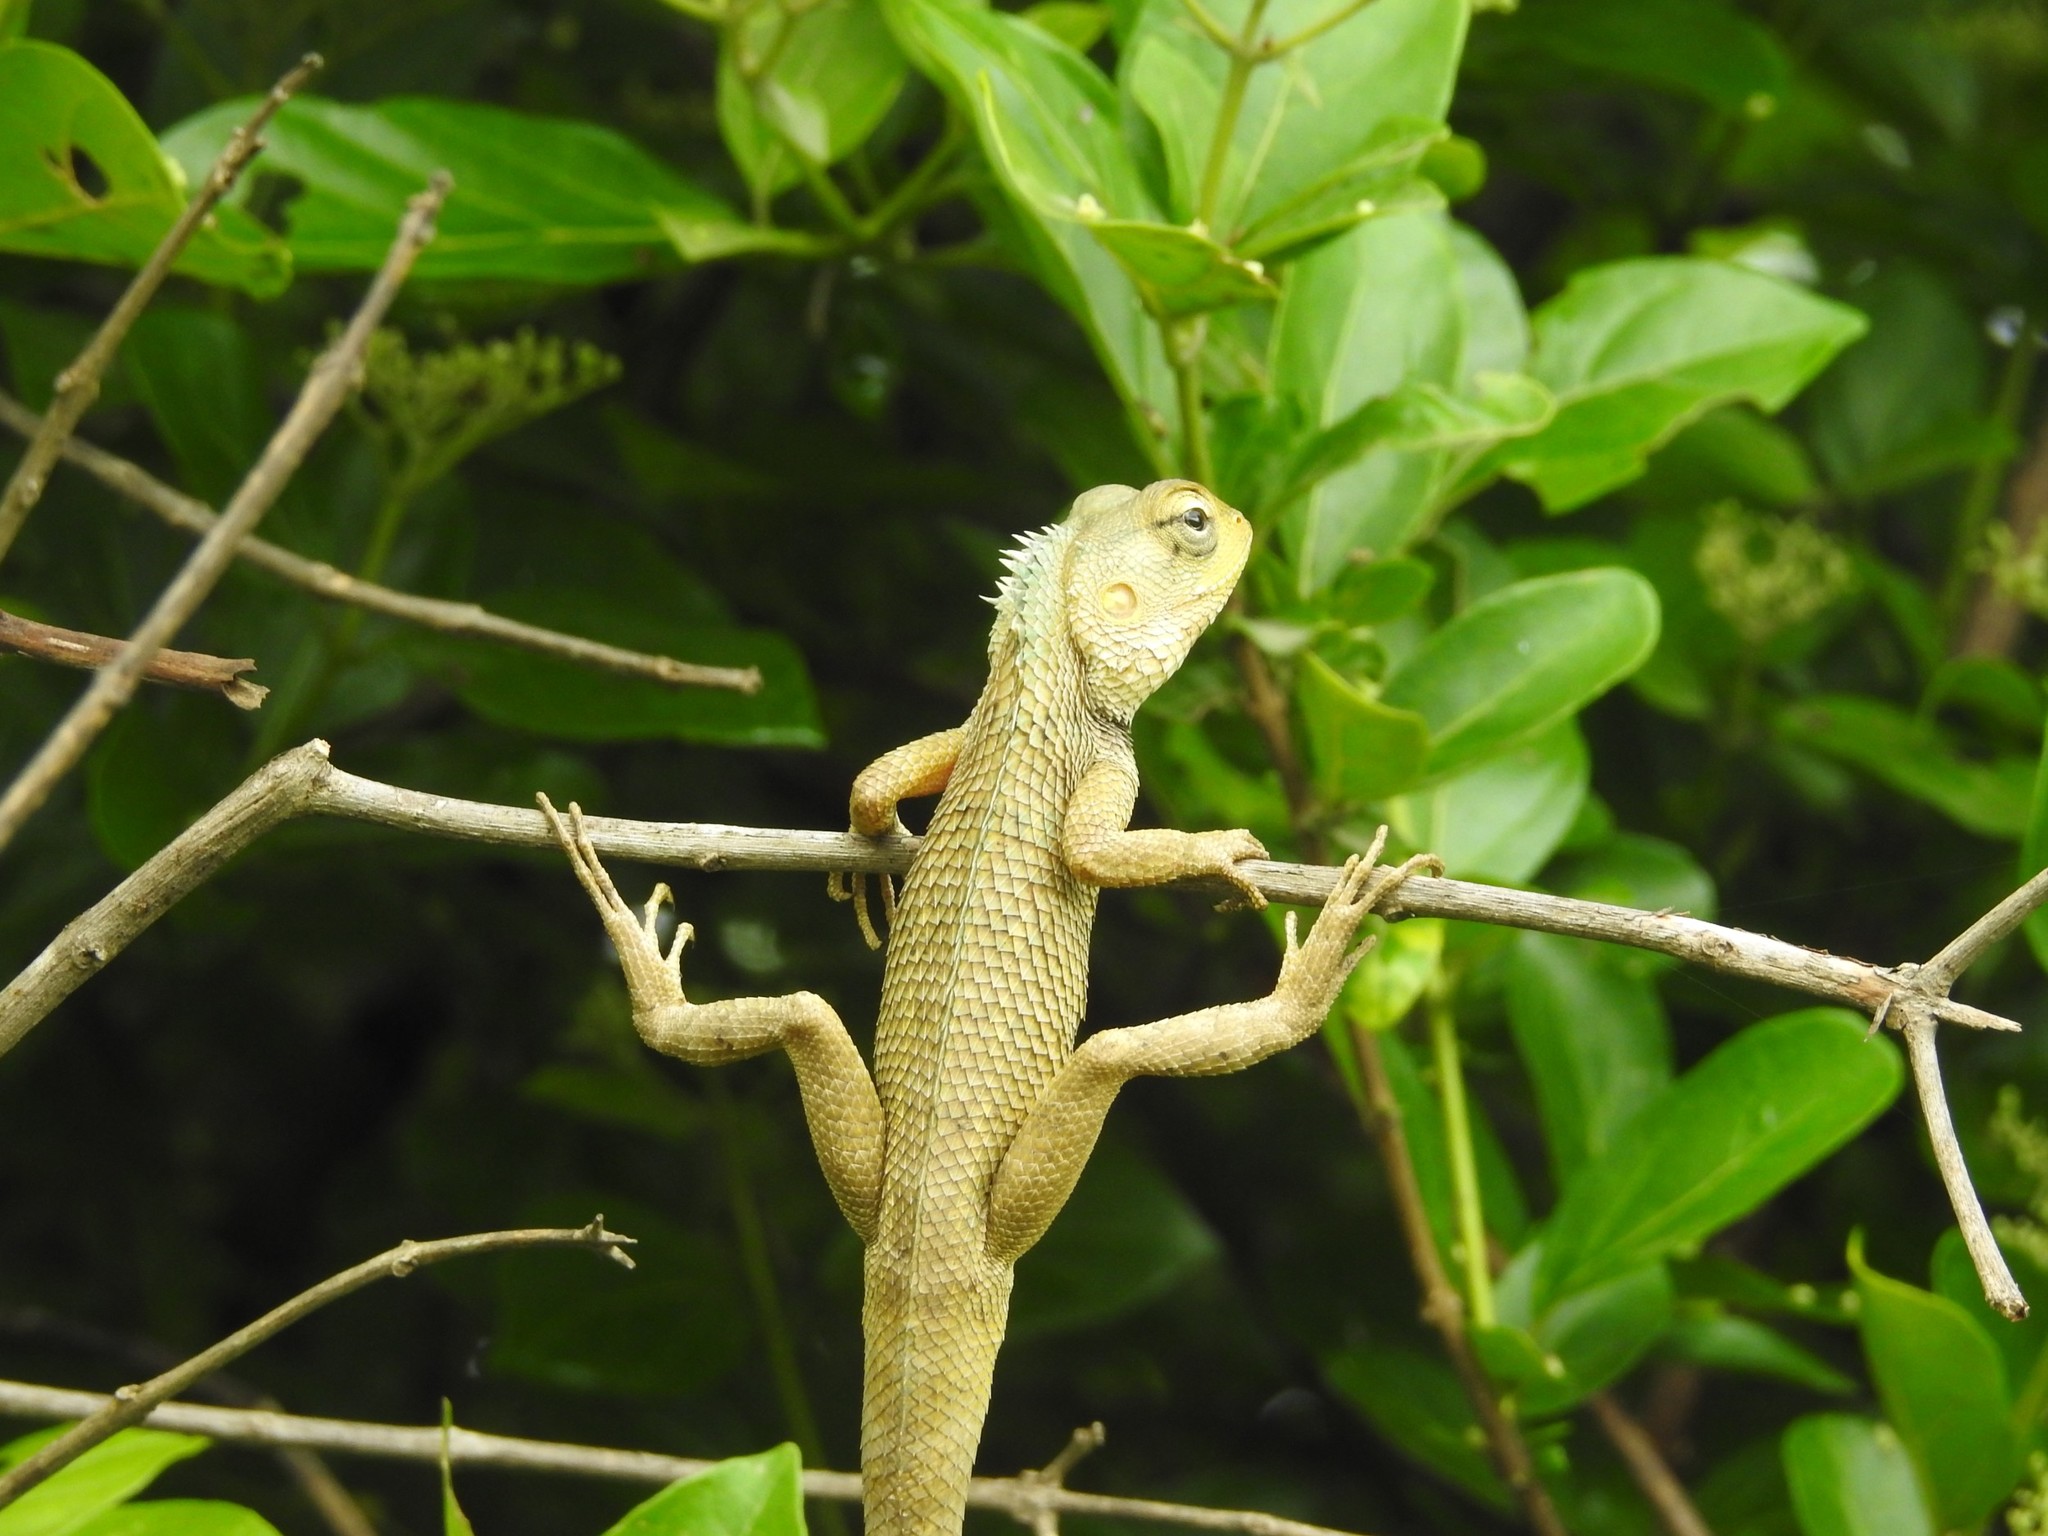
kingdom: Animalia
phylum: Chordata
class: Squamata
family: Agamidae
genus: Calotes
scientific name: Calotes versicolor
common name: Oriental garden lizard
